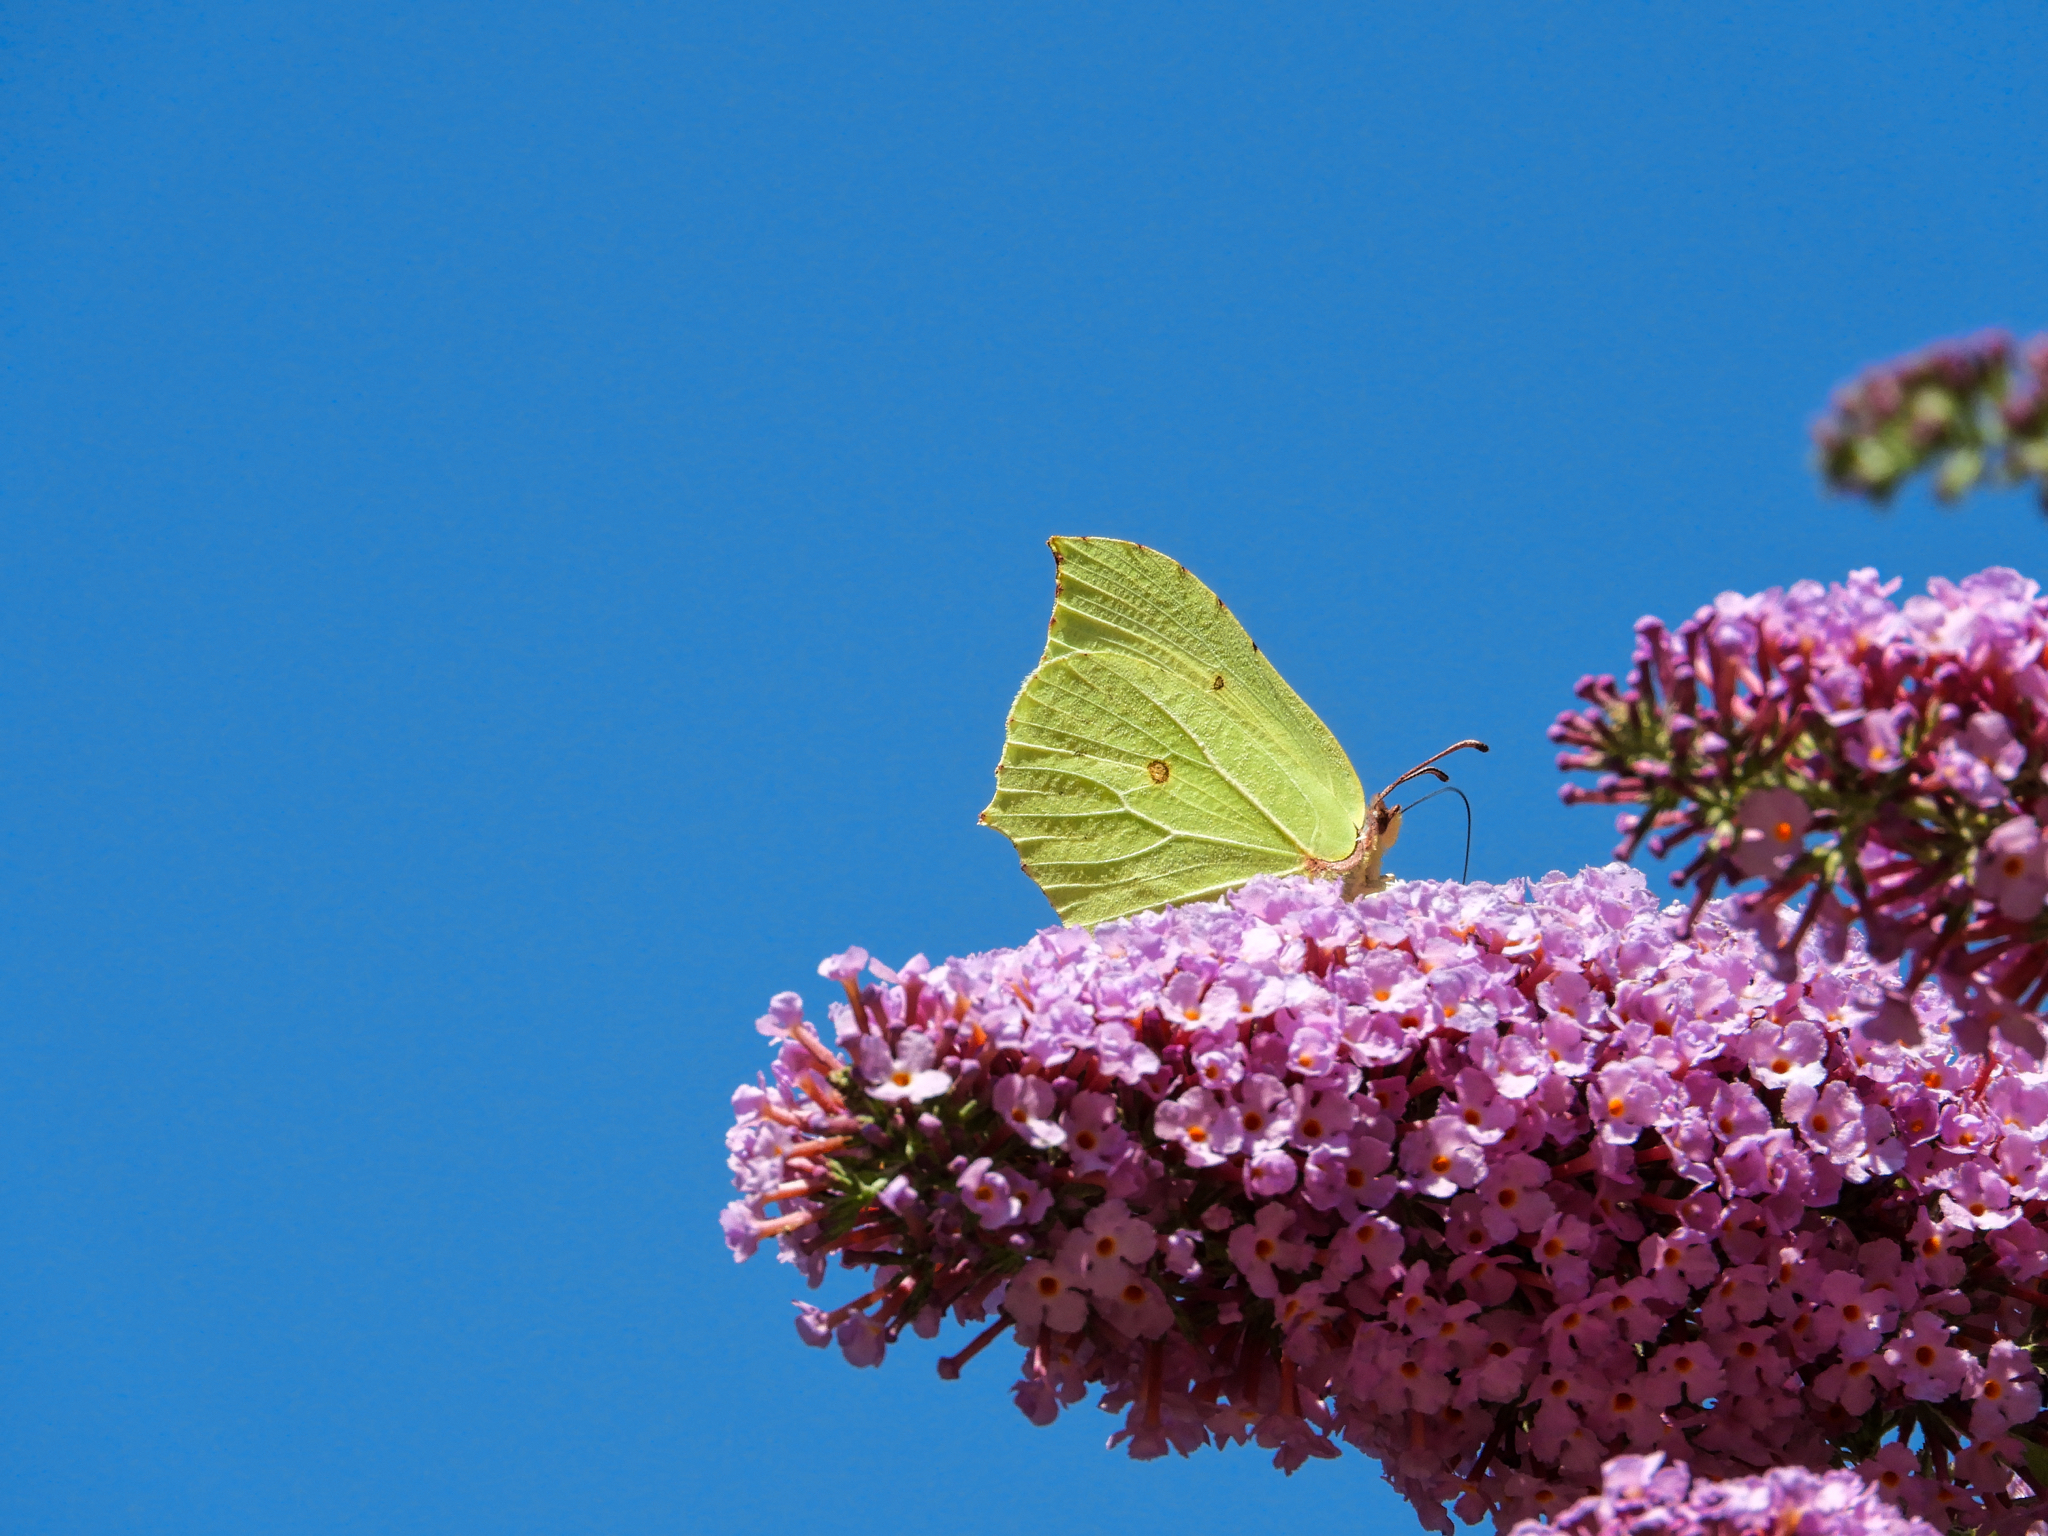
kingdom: Animalia
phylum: Arthropoda
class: Insecta
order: Lepidoptera
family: Pieridae
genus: Gonepteryx
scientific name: Gonepteryx rhamni
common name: Brimstone
